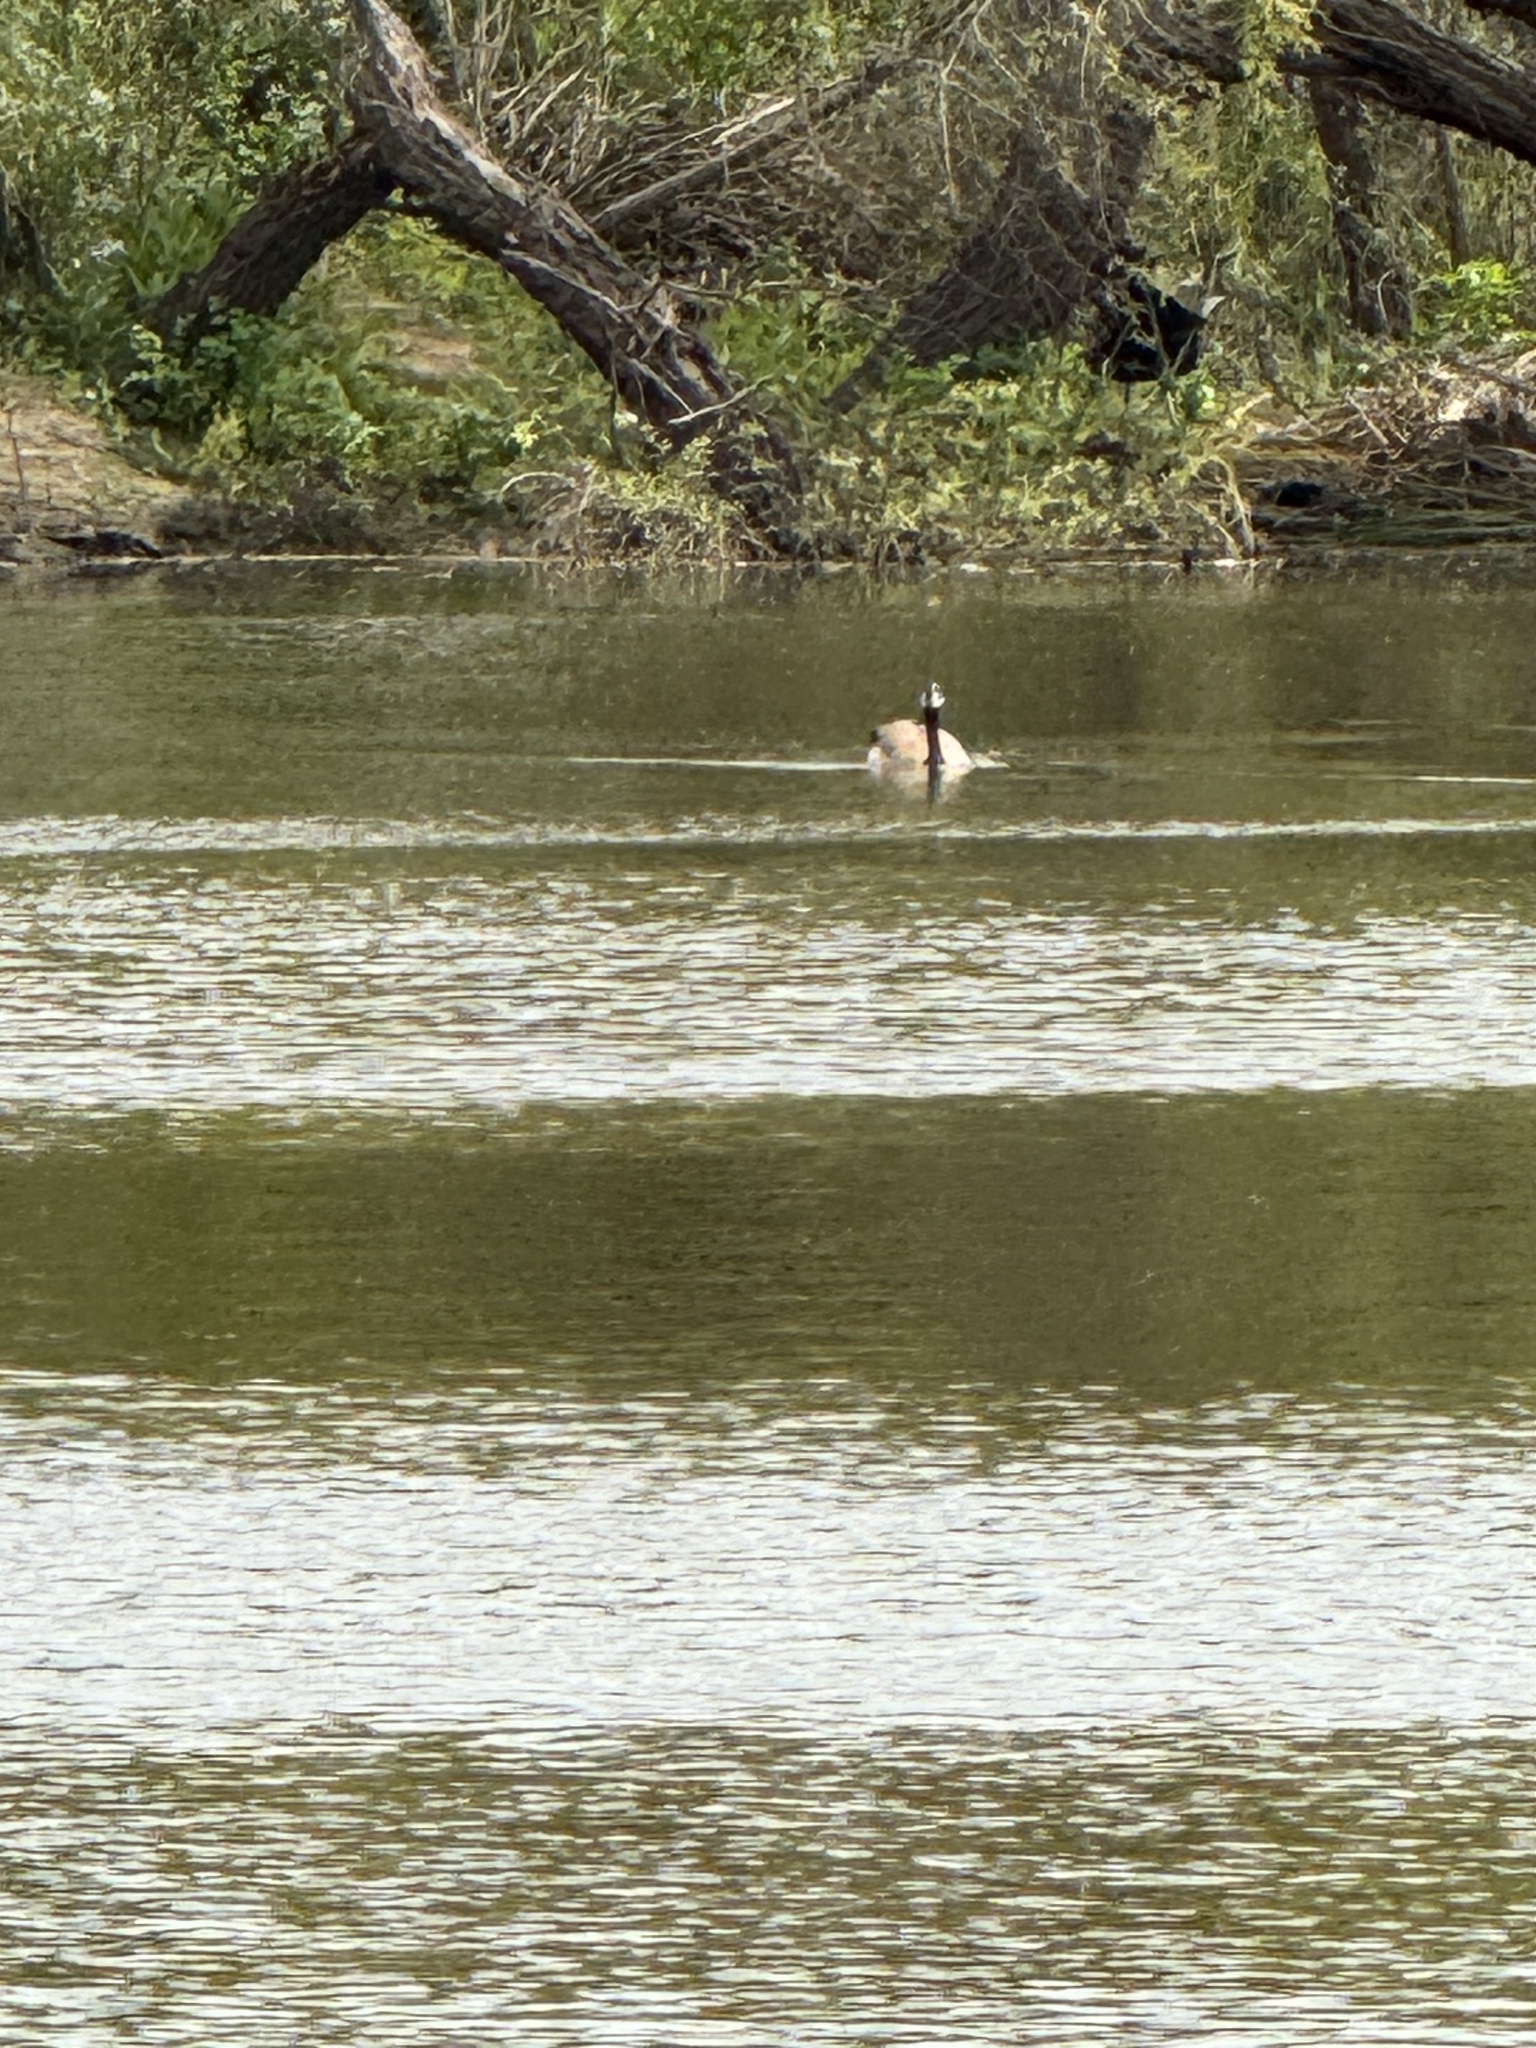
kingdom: Animalia
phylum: Chordata
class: Aves
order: Anseriformes
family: Anatidae
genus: Branta
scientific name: Branta canadensis
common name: Canada goose
